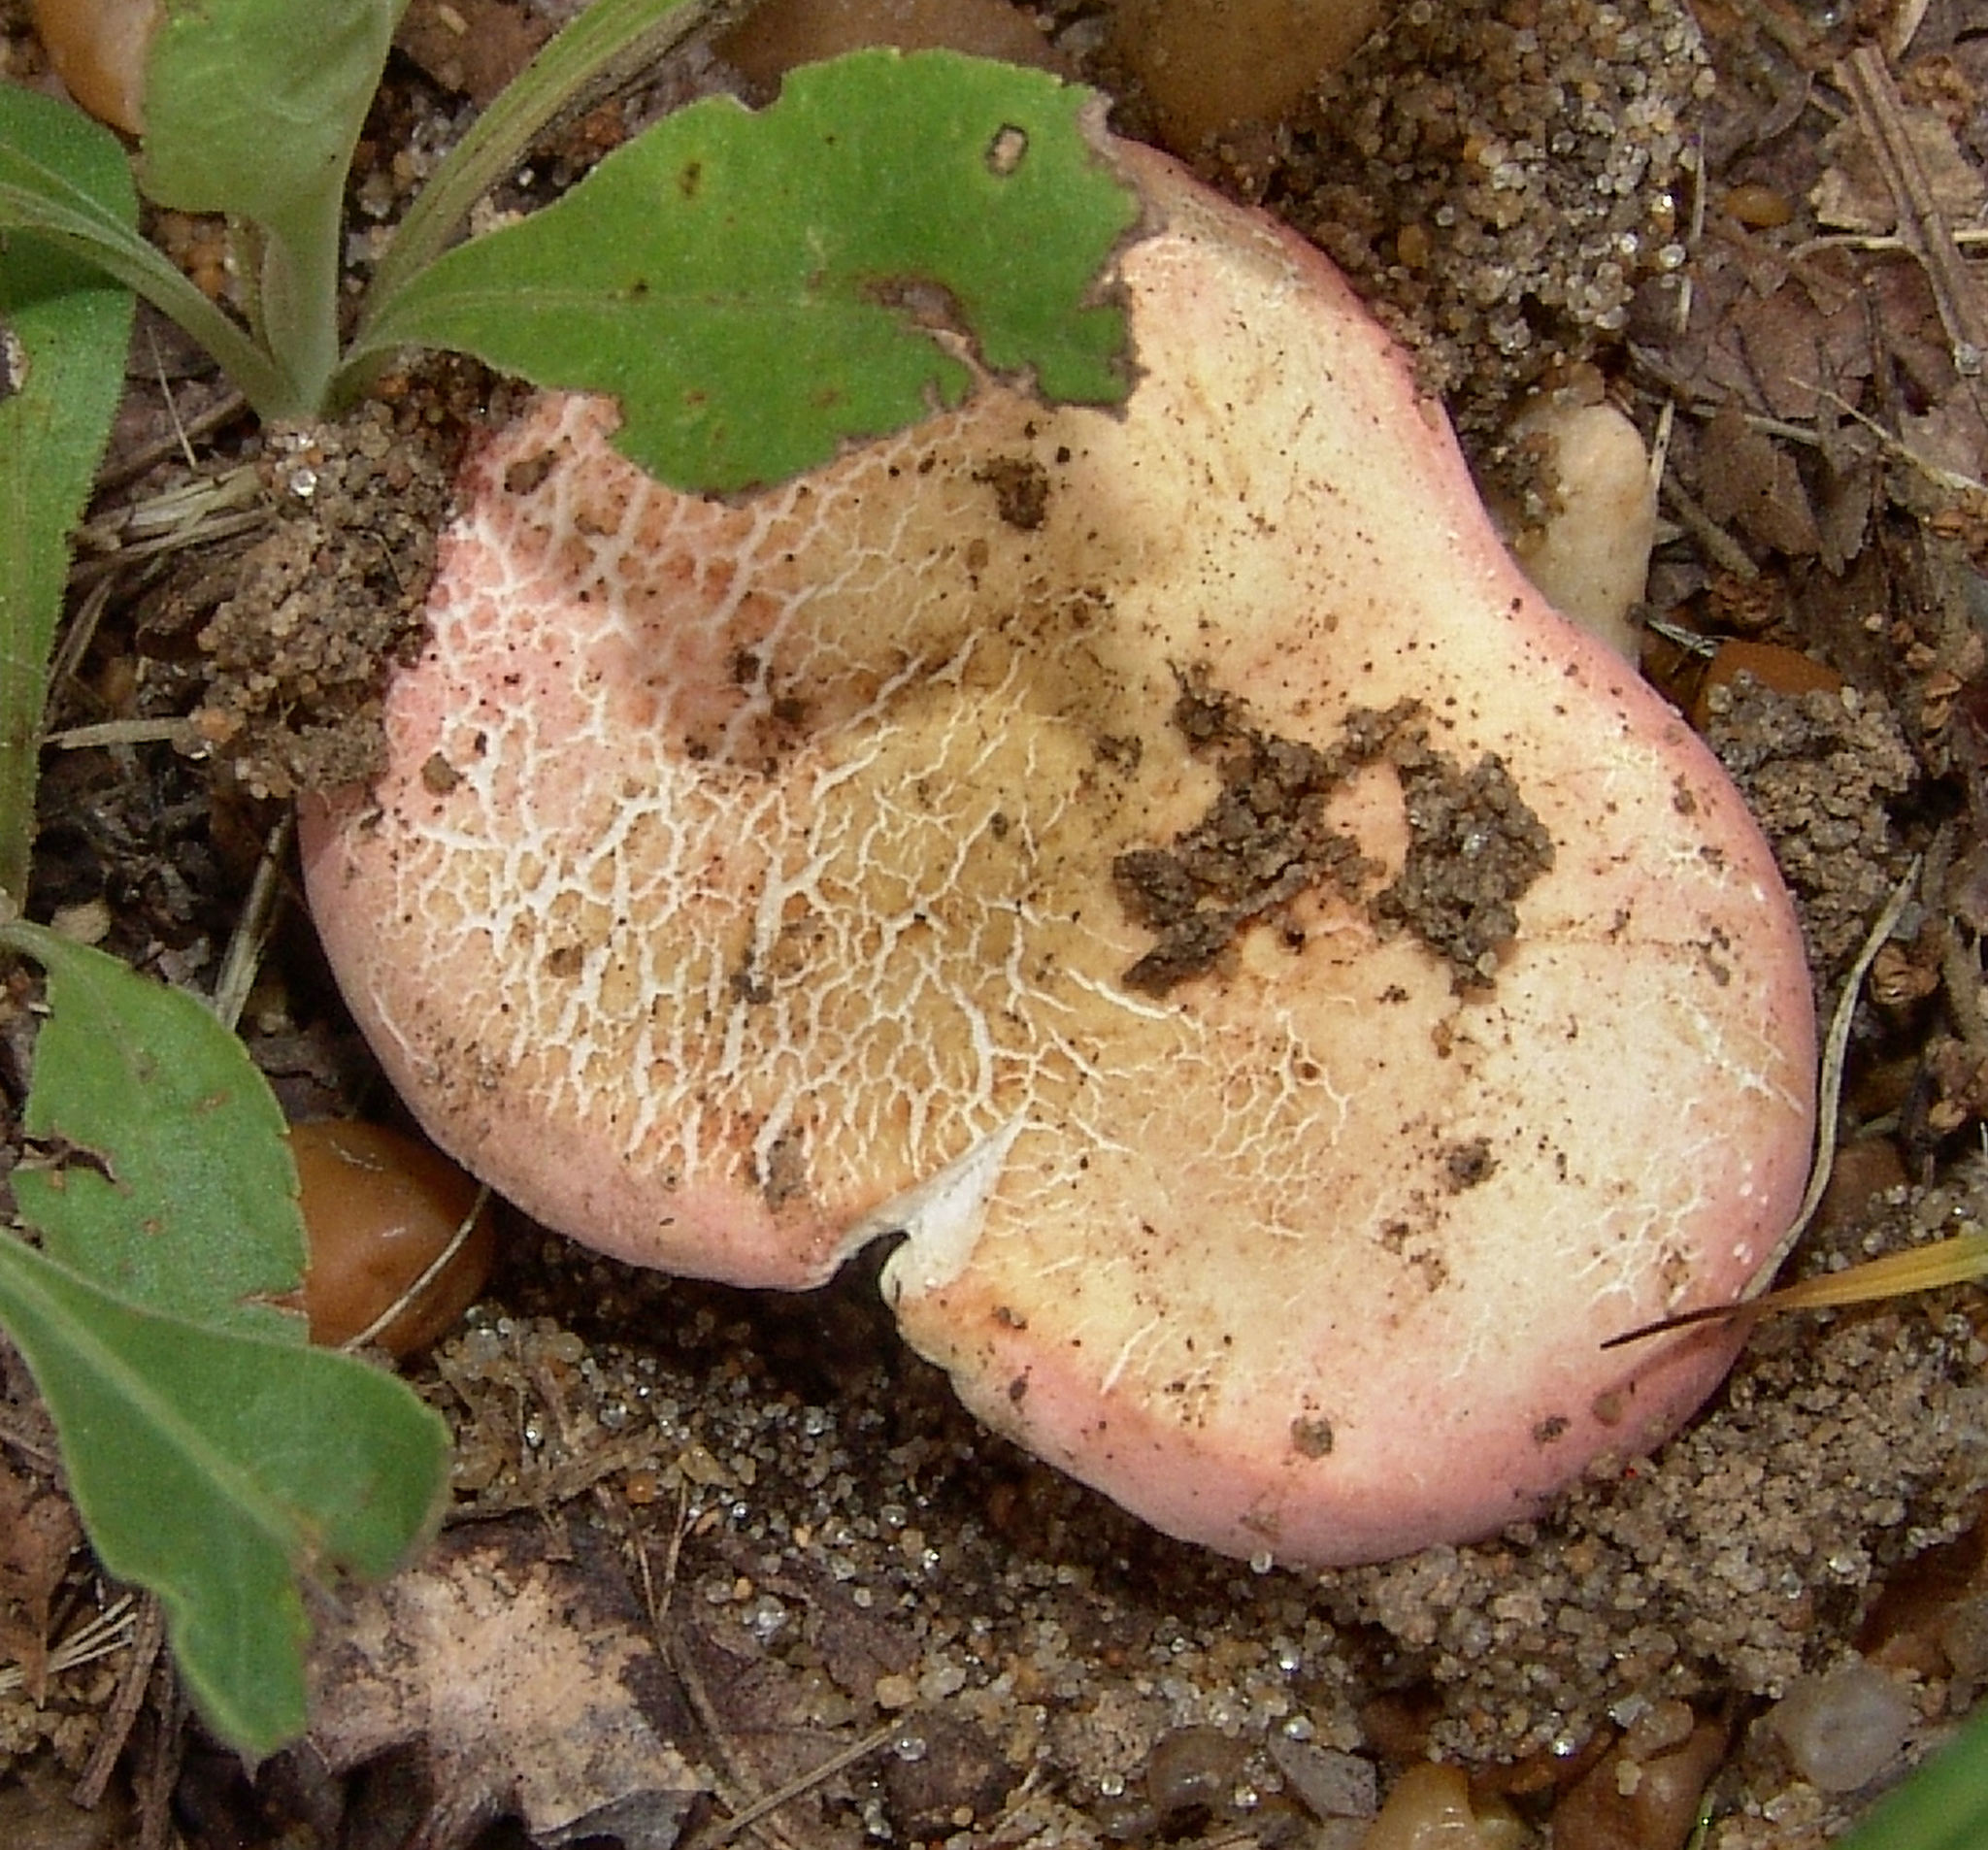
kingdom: Fungi
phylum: Basidiomycota
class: Agaricomycetes
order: Russulales
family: Russulaceae
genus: Russula
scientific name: Russula
